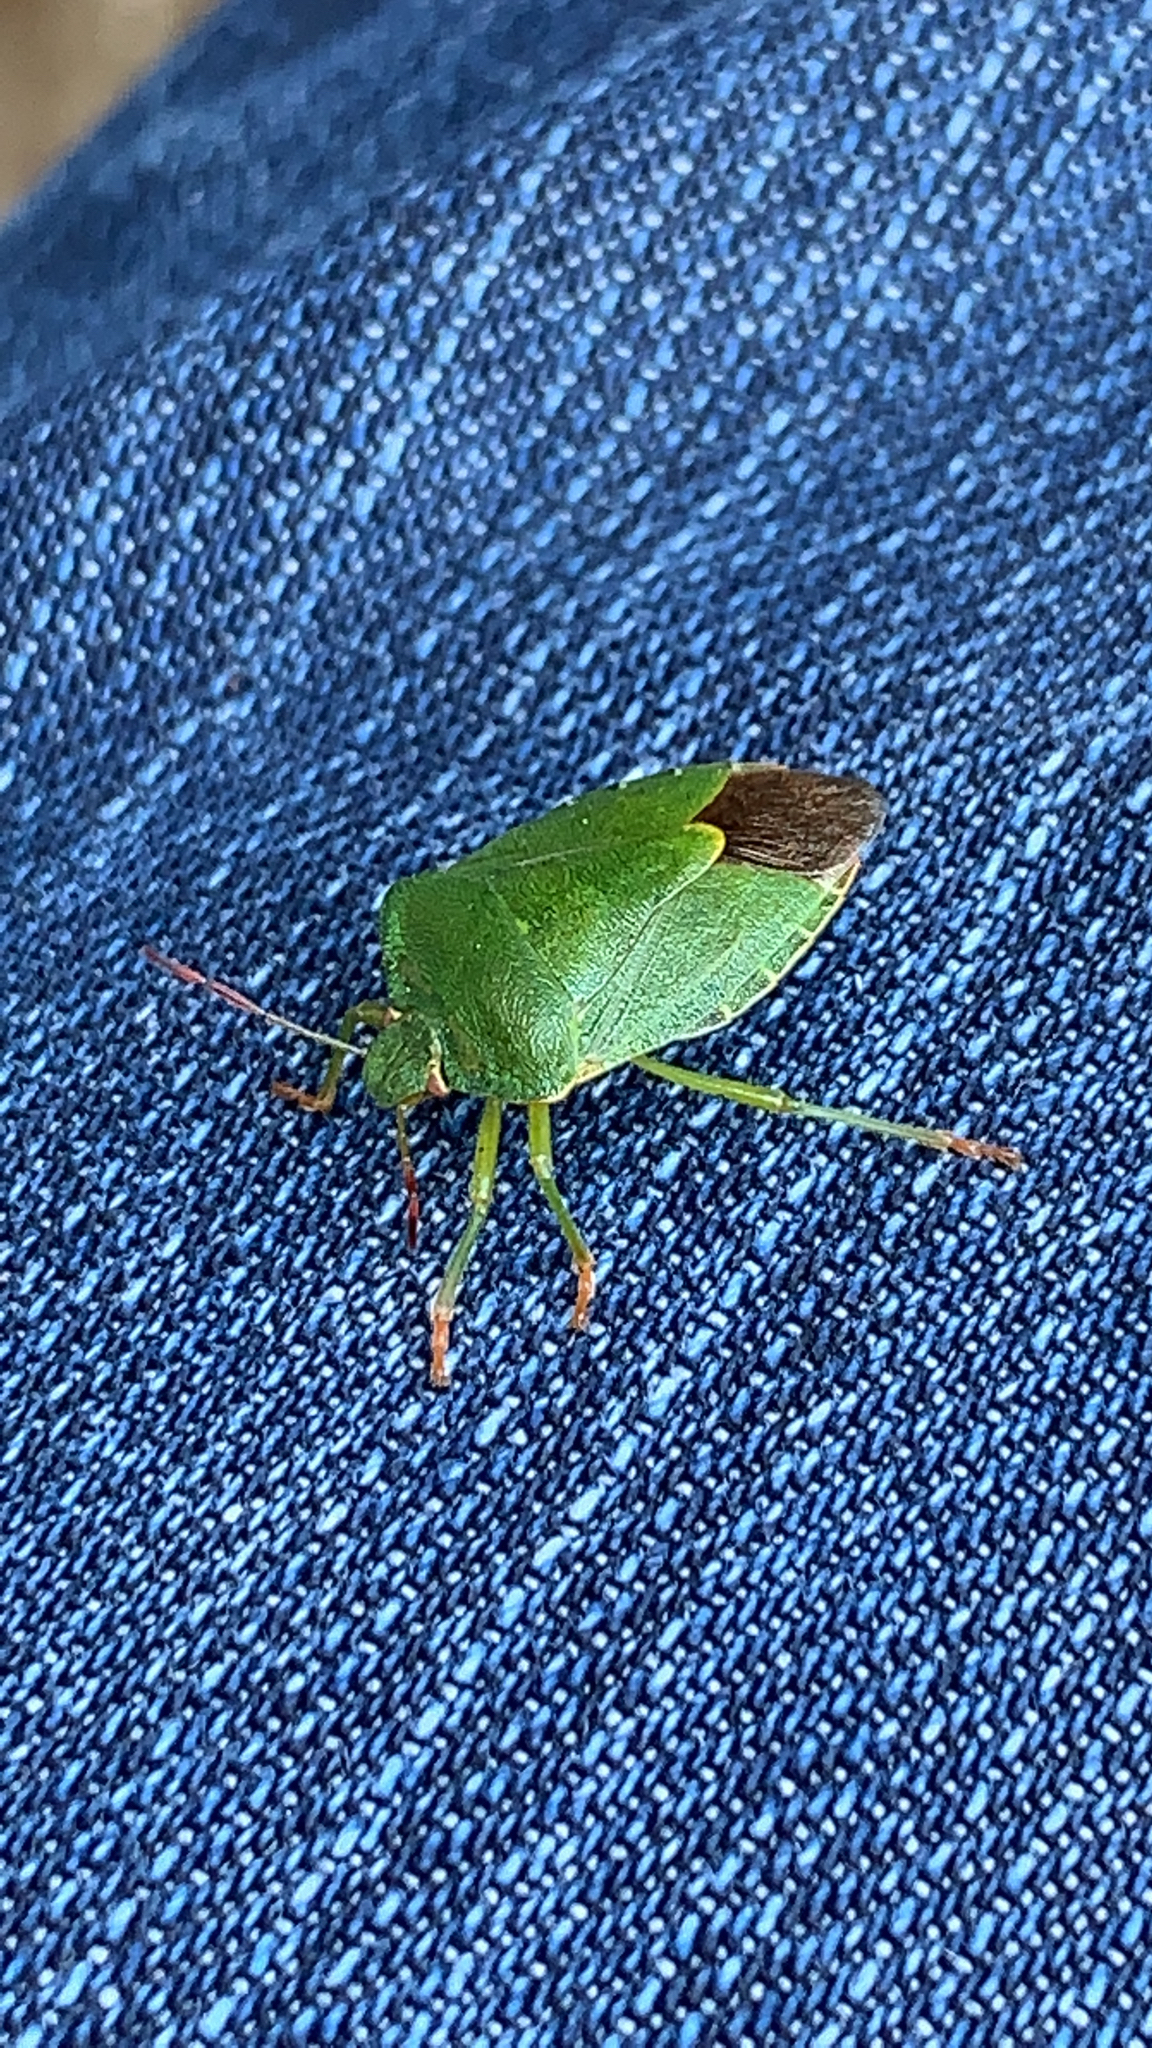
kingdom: Animalia
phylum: Arthropoda
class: Insecta
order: Hemiptera
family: Pentatomidae
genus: Palomena
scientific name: Palomena prasina
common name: Green shieldbug
